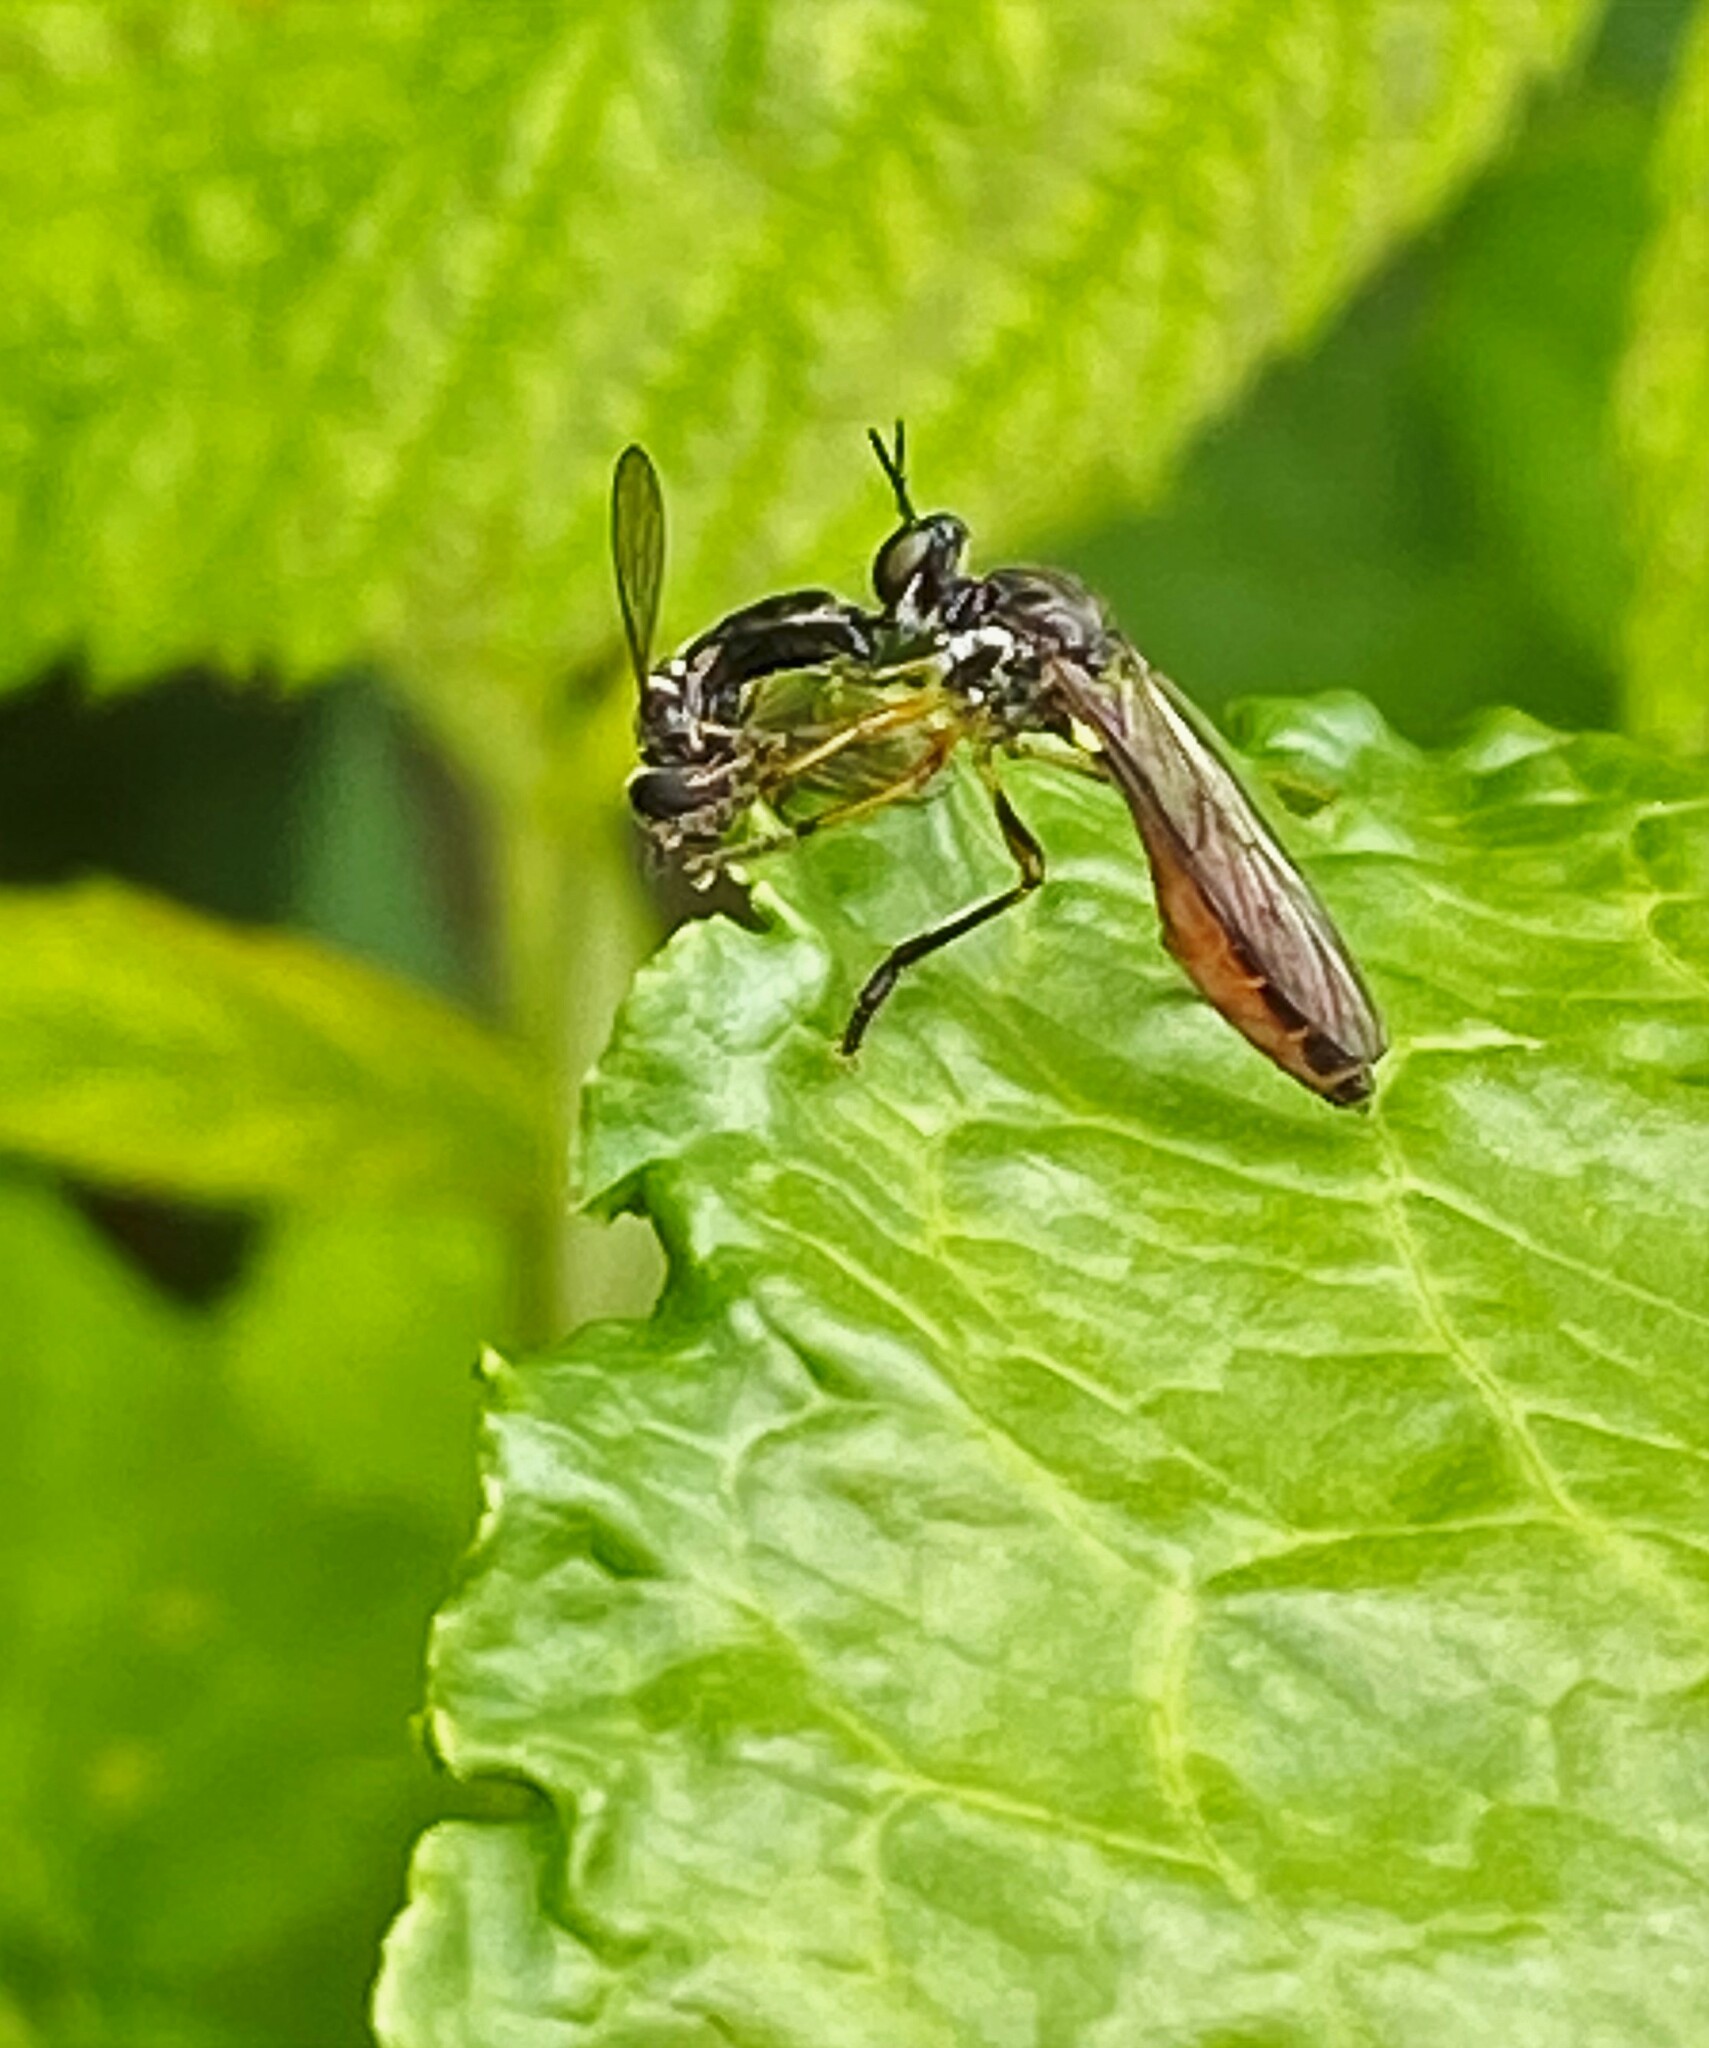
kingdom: Animalia
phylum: Arthropoda
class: Insecta
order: Diptera
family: Asilidae
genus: Dioctria
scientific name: Dioctria hyalipennis
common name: Stripe-legged robberfly
